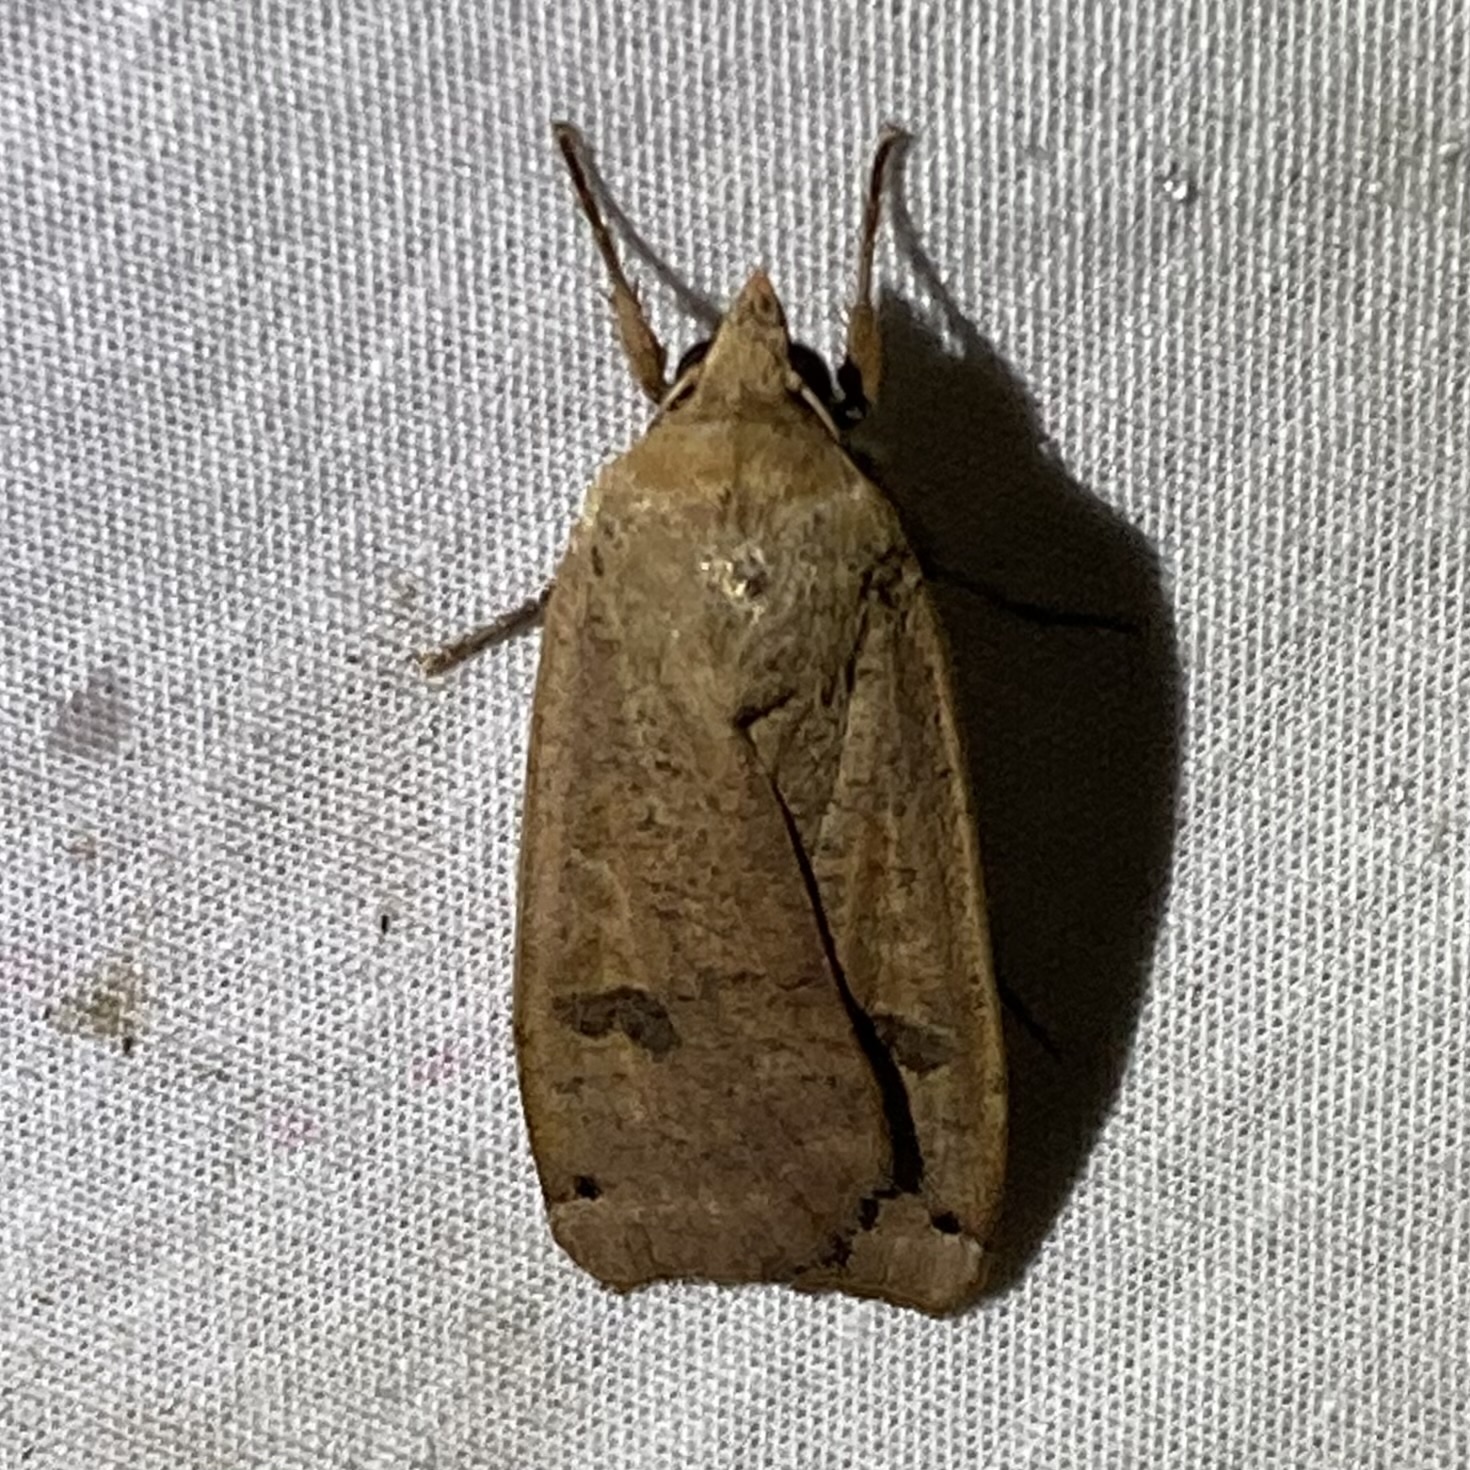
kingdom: Animalia
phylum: Arthropoda
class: Insecta
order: Lepidoptera
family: Noctuidae
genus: Noctua
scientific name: Noctua pronuba
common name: Large yellow underwing
